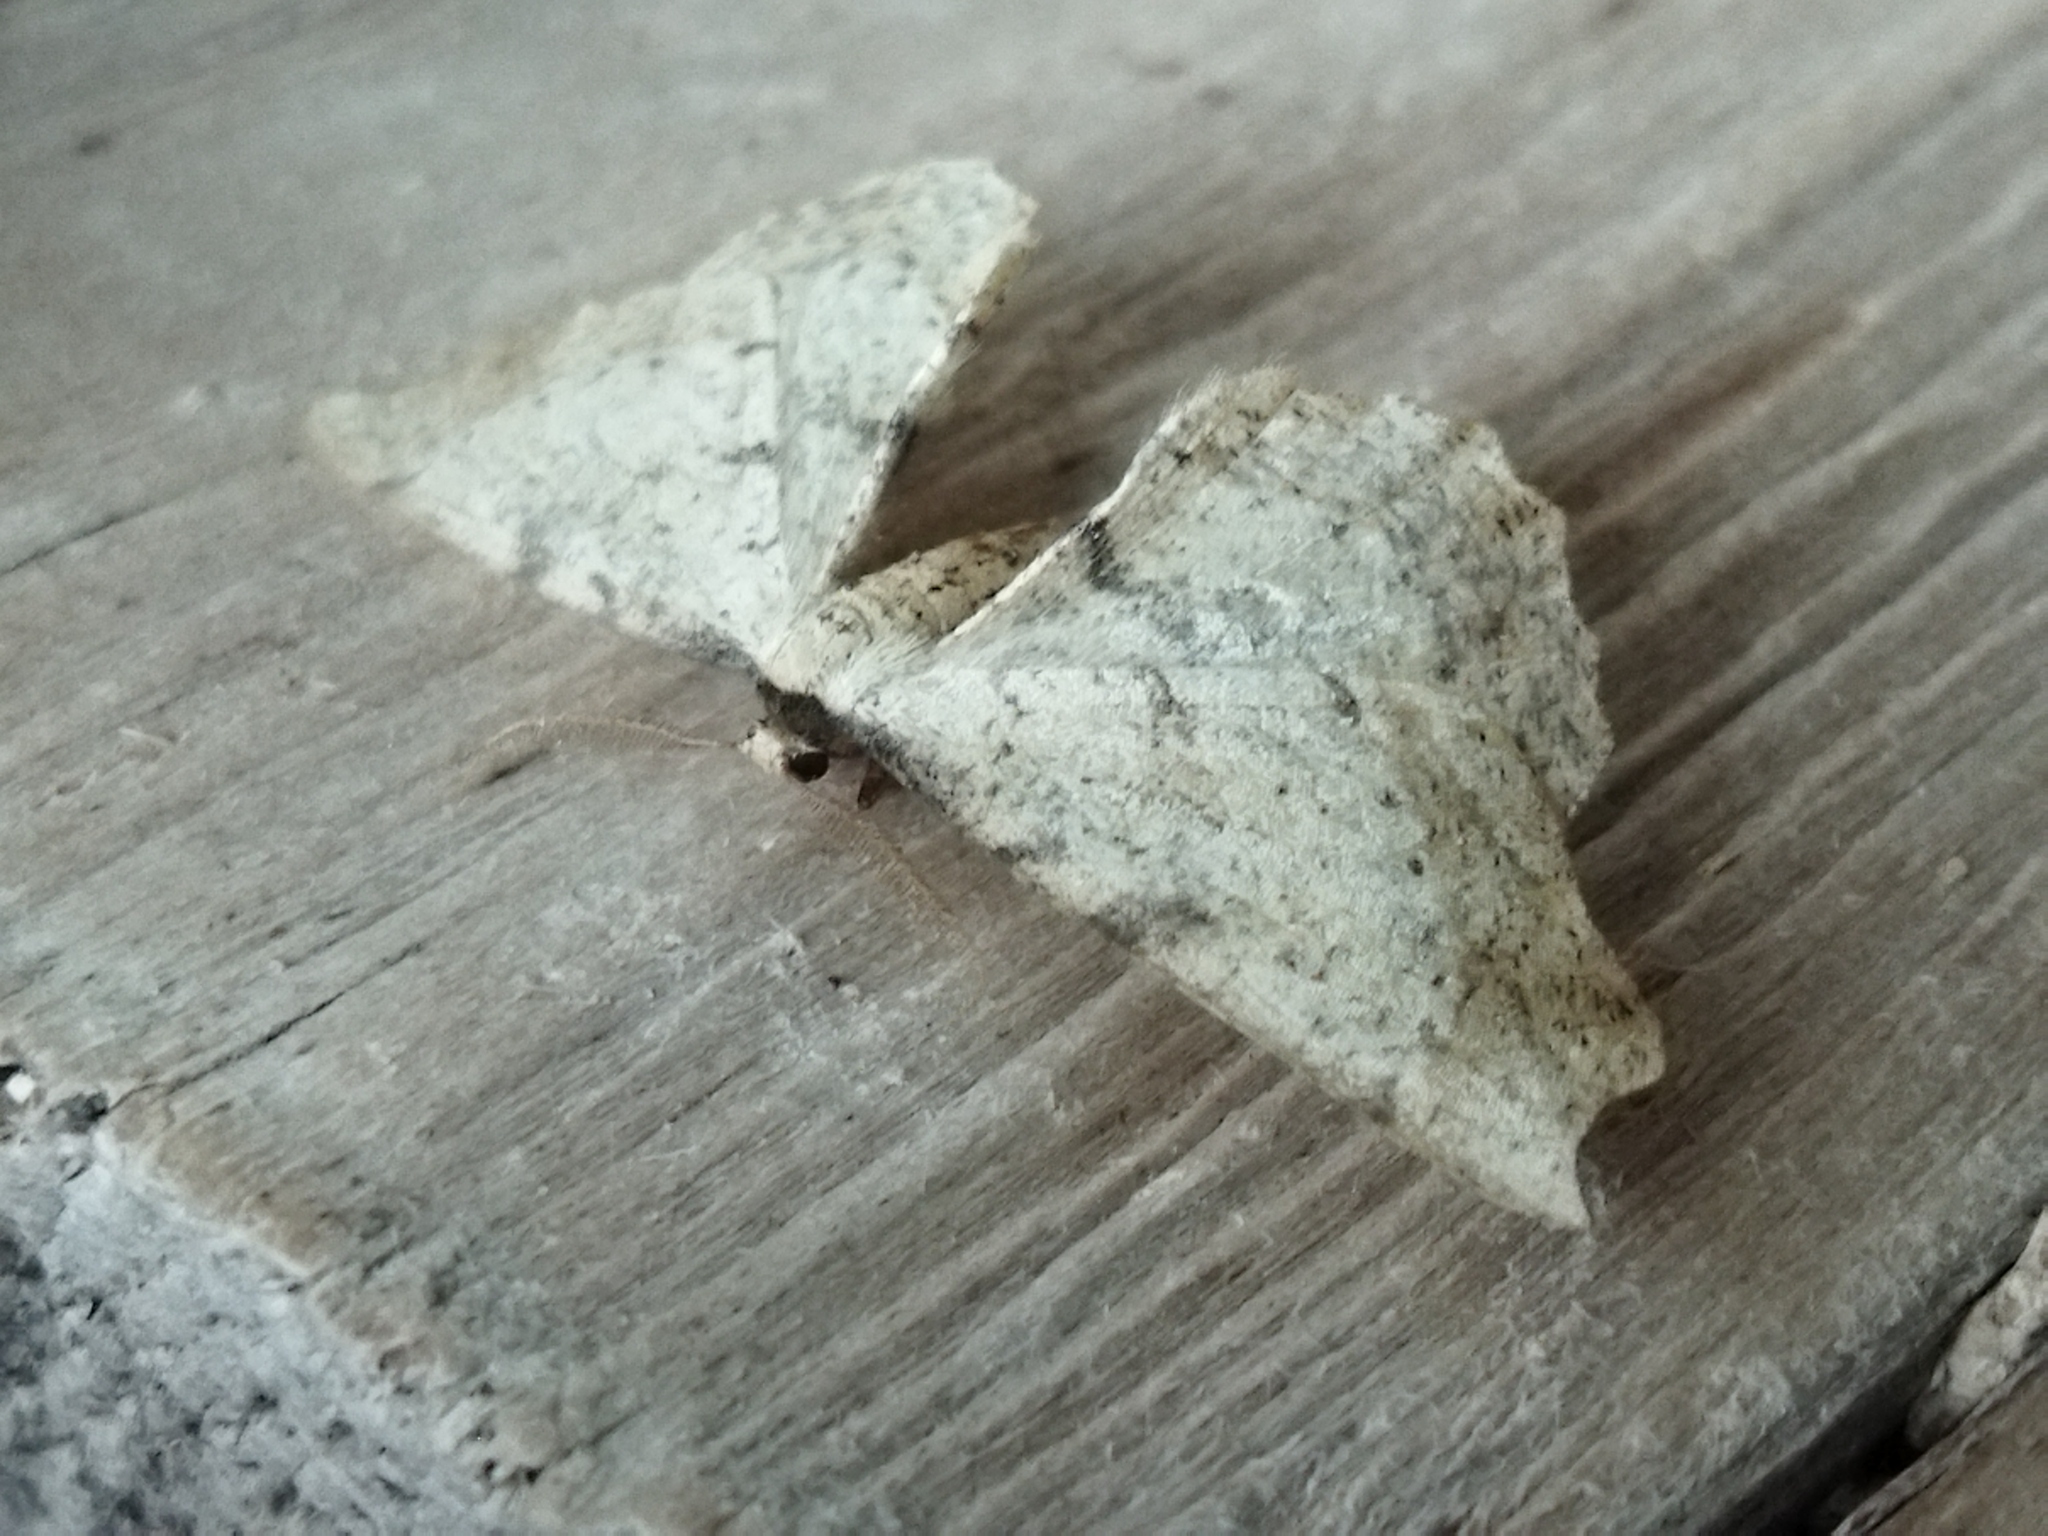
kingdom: Animalia
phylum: Arthropoda
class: Insecta
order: Lepidoptera
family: Geometridae
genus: Artiora
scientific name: Artiora evonymaria
